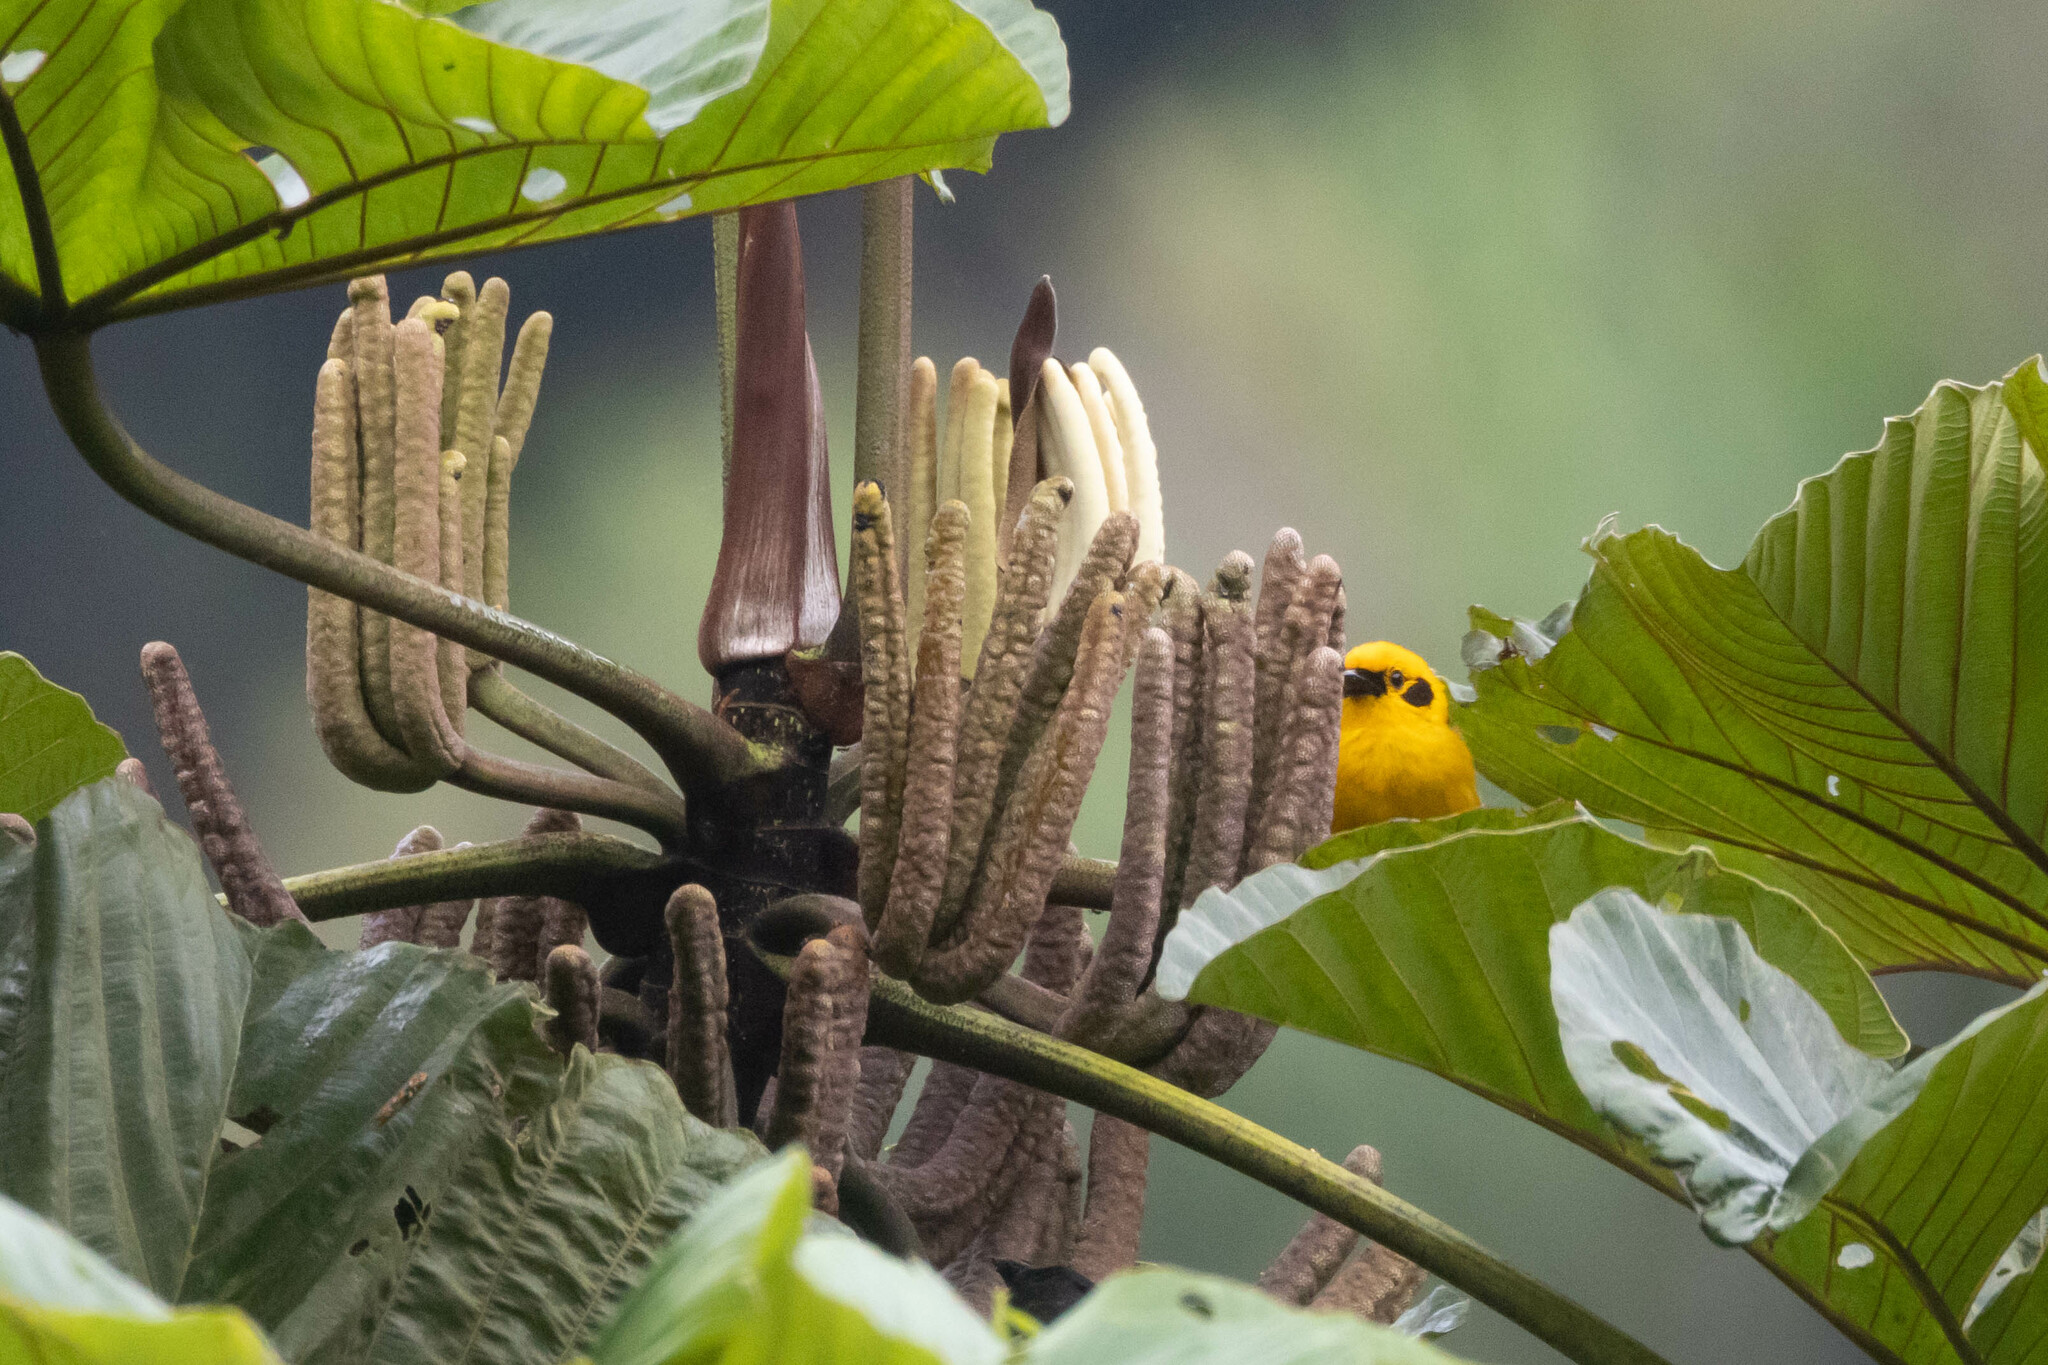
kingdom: Animalia
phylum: Chordata
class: Aves
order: Passeriformes
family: Thraupidae
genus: Tangara
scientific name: Tangara arthus
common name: Golden tanager
